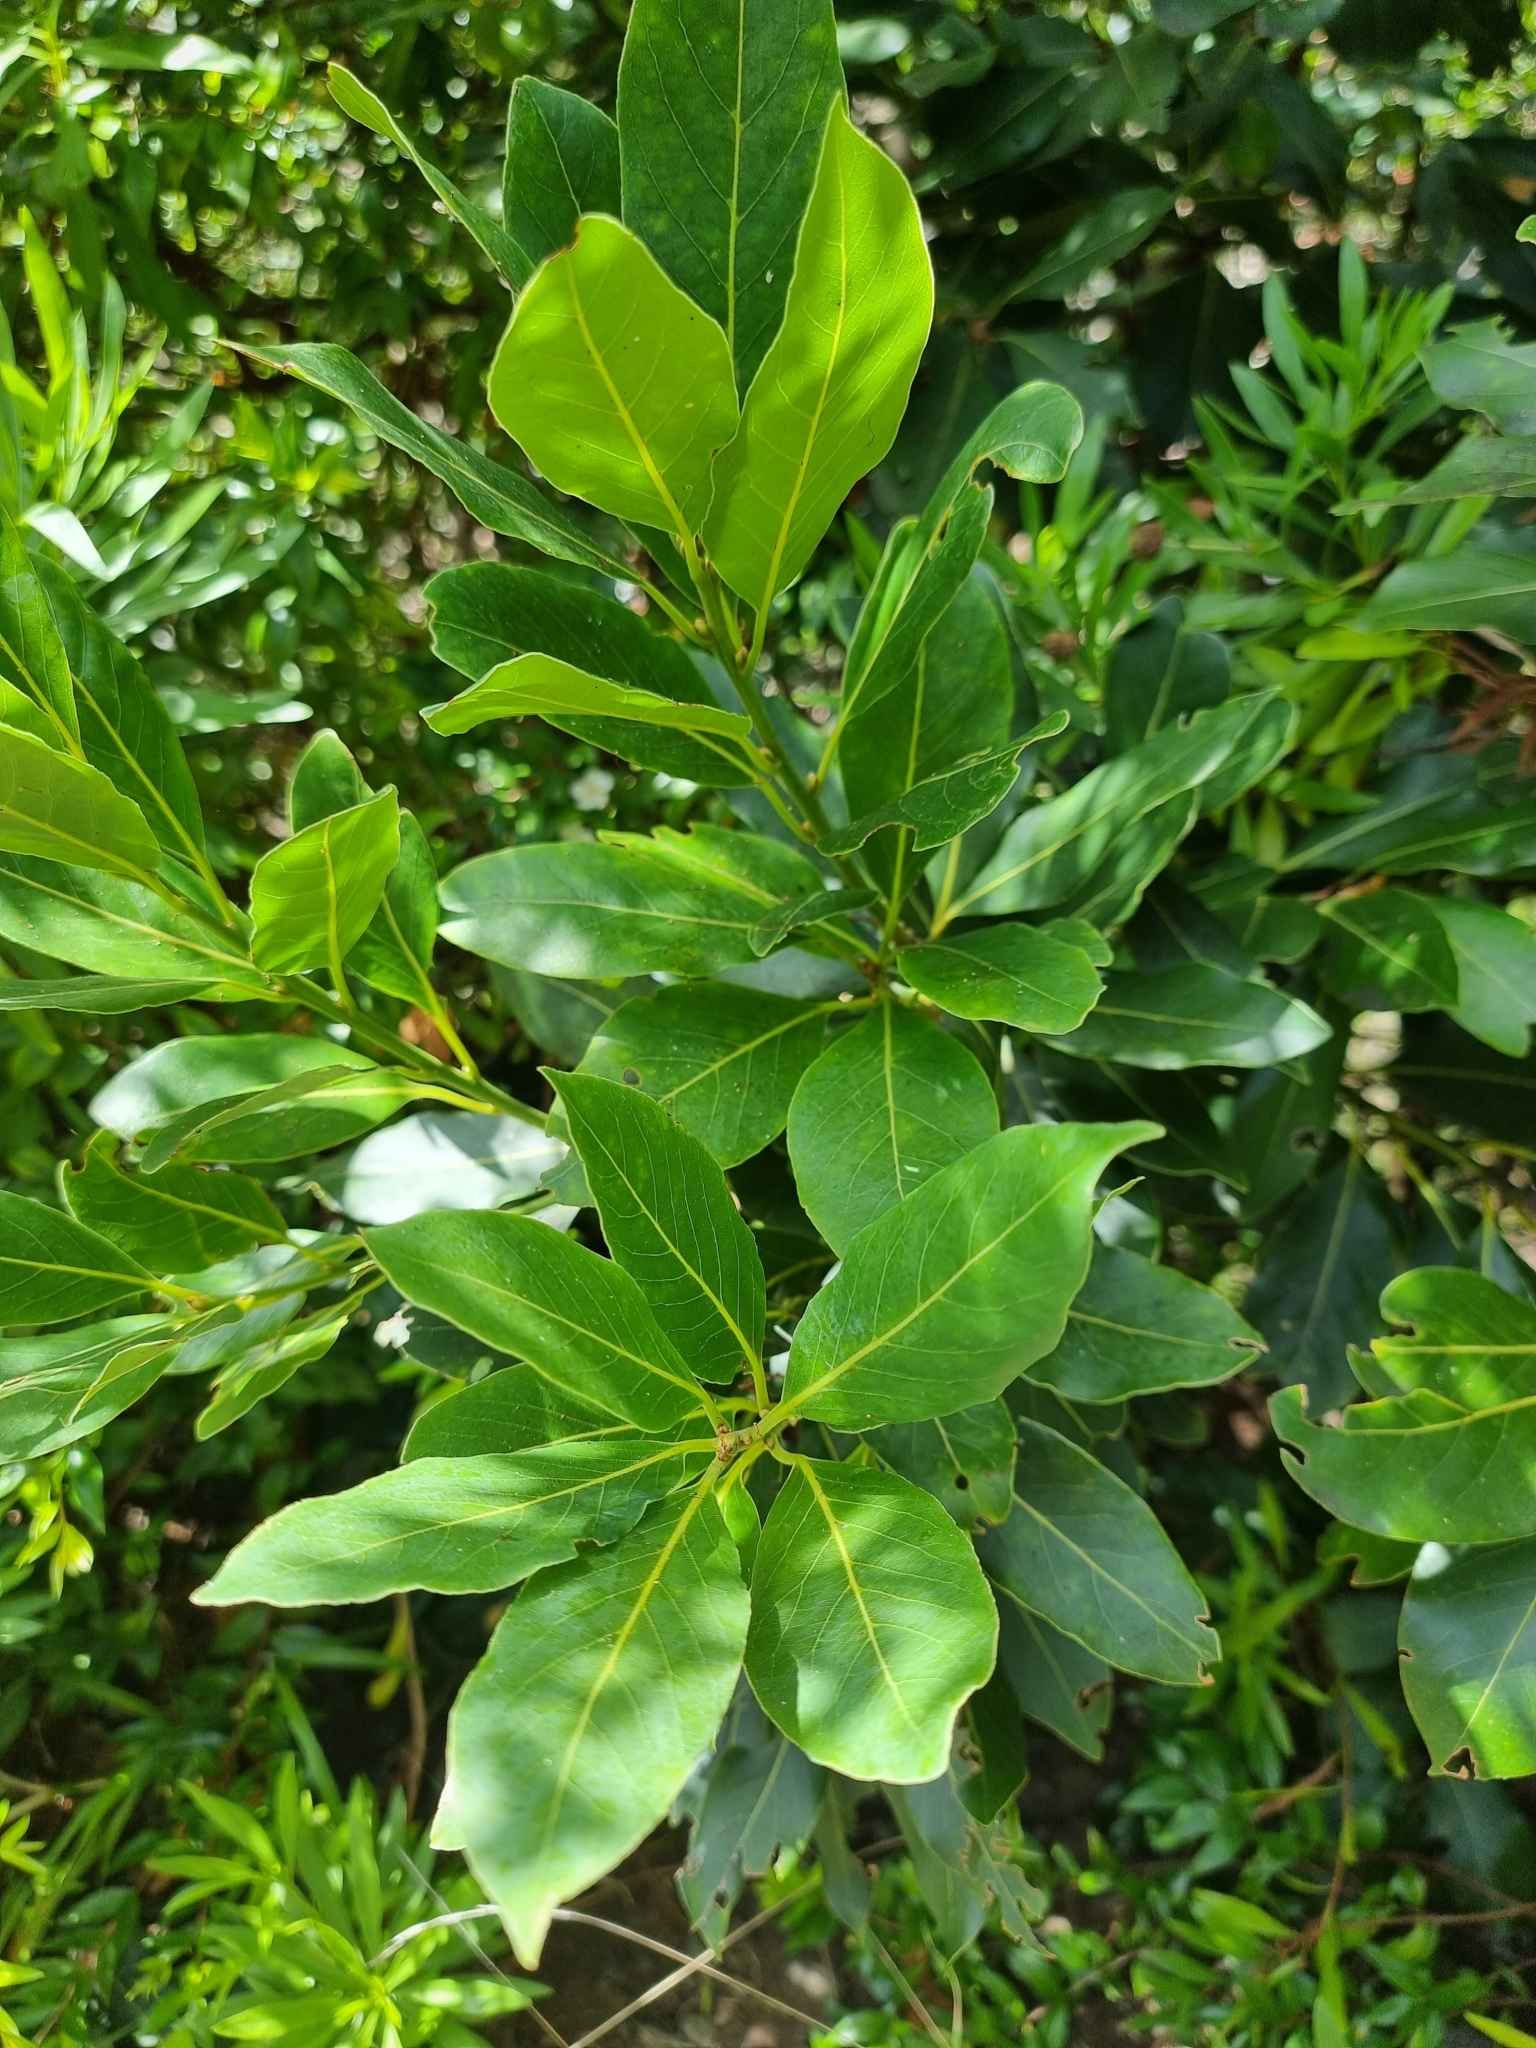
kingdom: Plantae
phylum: Tracheophyta
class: Magnoliopsida
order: Laurales
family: Lauraceae
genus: Laurus
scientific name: Laurus novocanariensis
